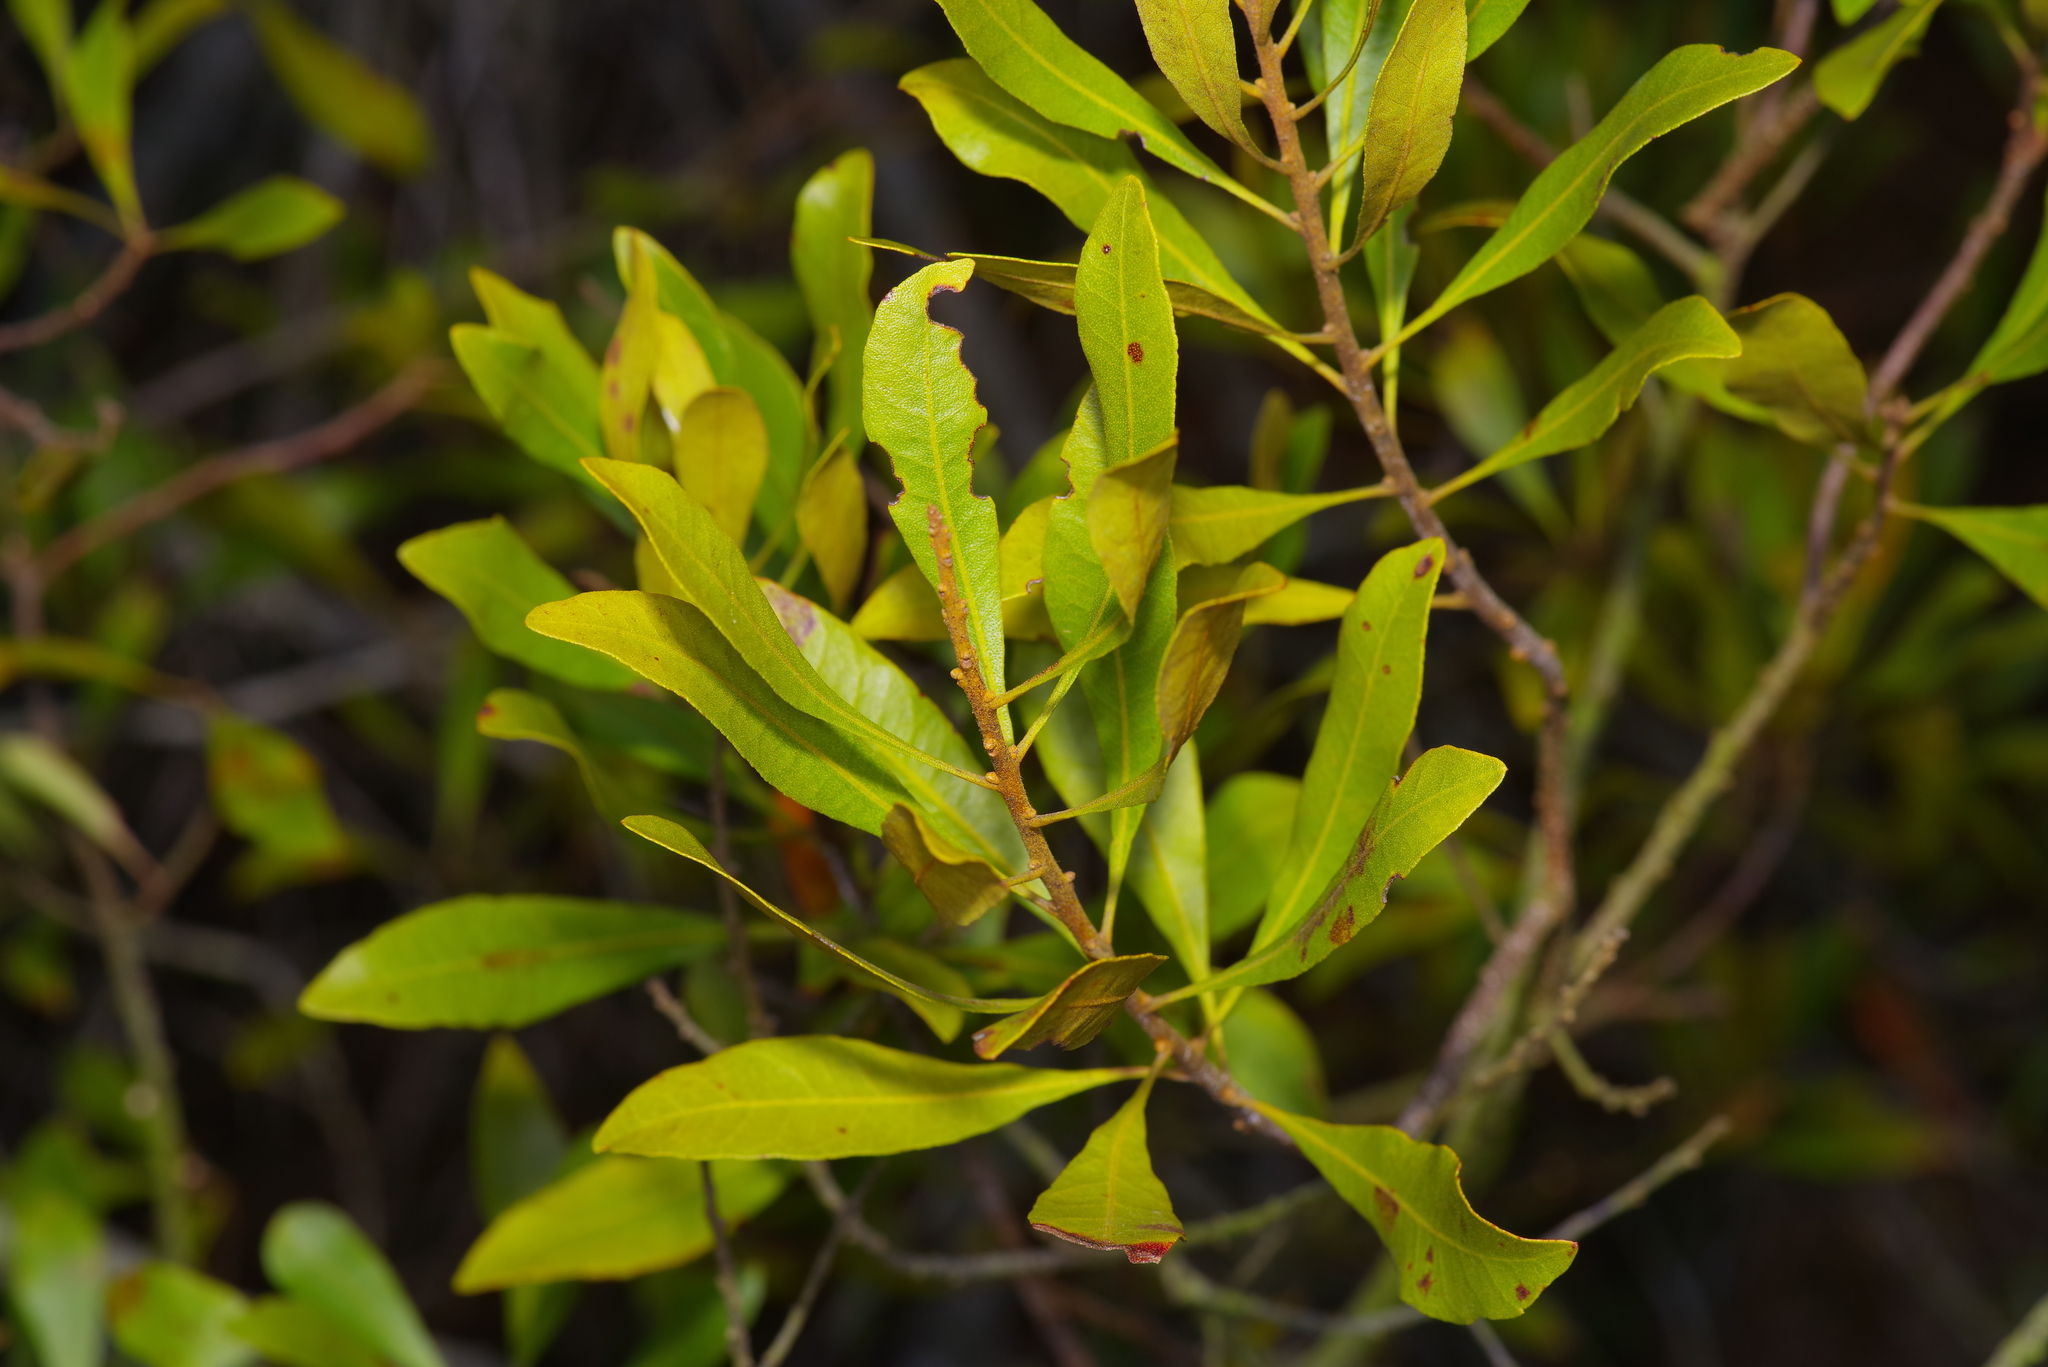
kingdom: Plantae
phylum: Tracheophyta
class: Magnoliopsida
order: Fagales
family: Myricaceae
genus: Morella
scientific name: Morella cerifera
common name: Wax myrtle
